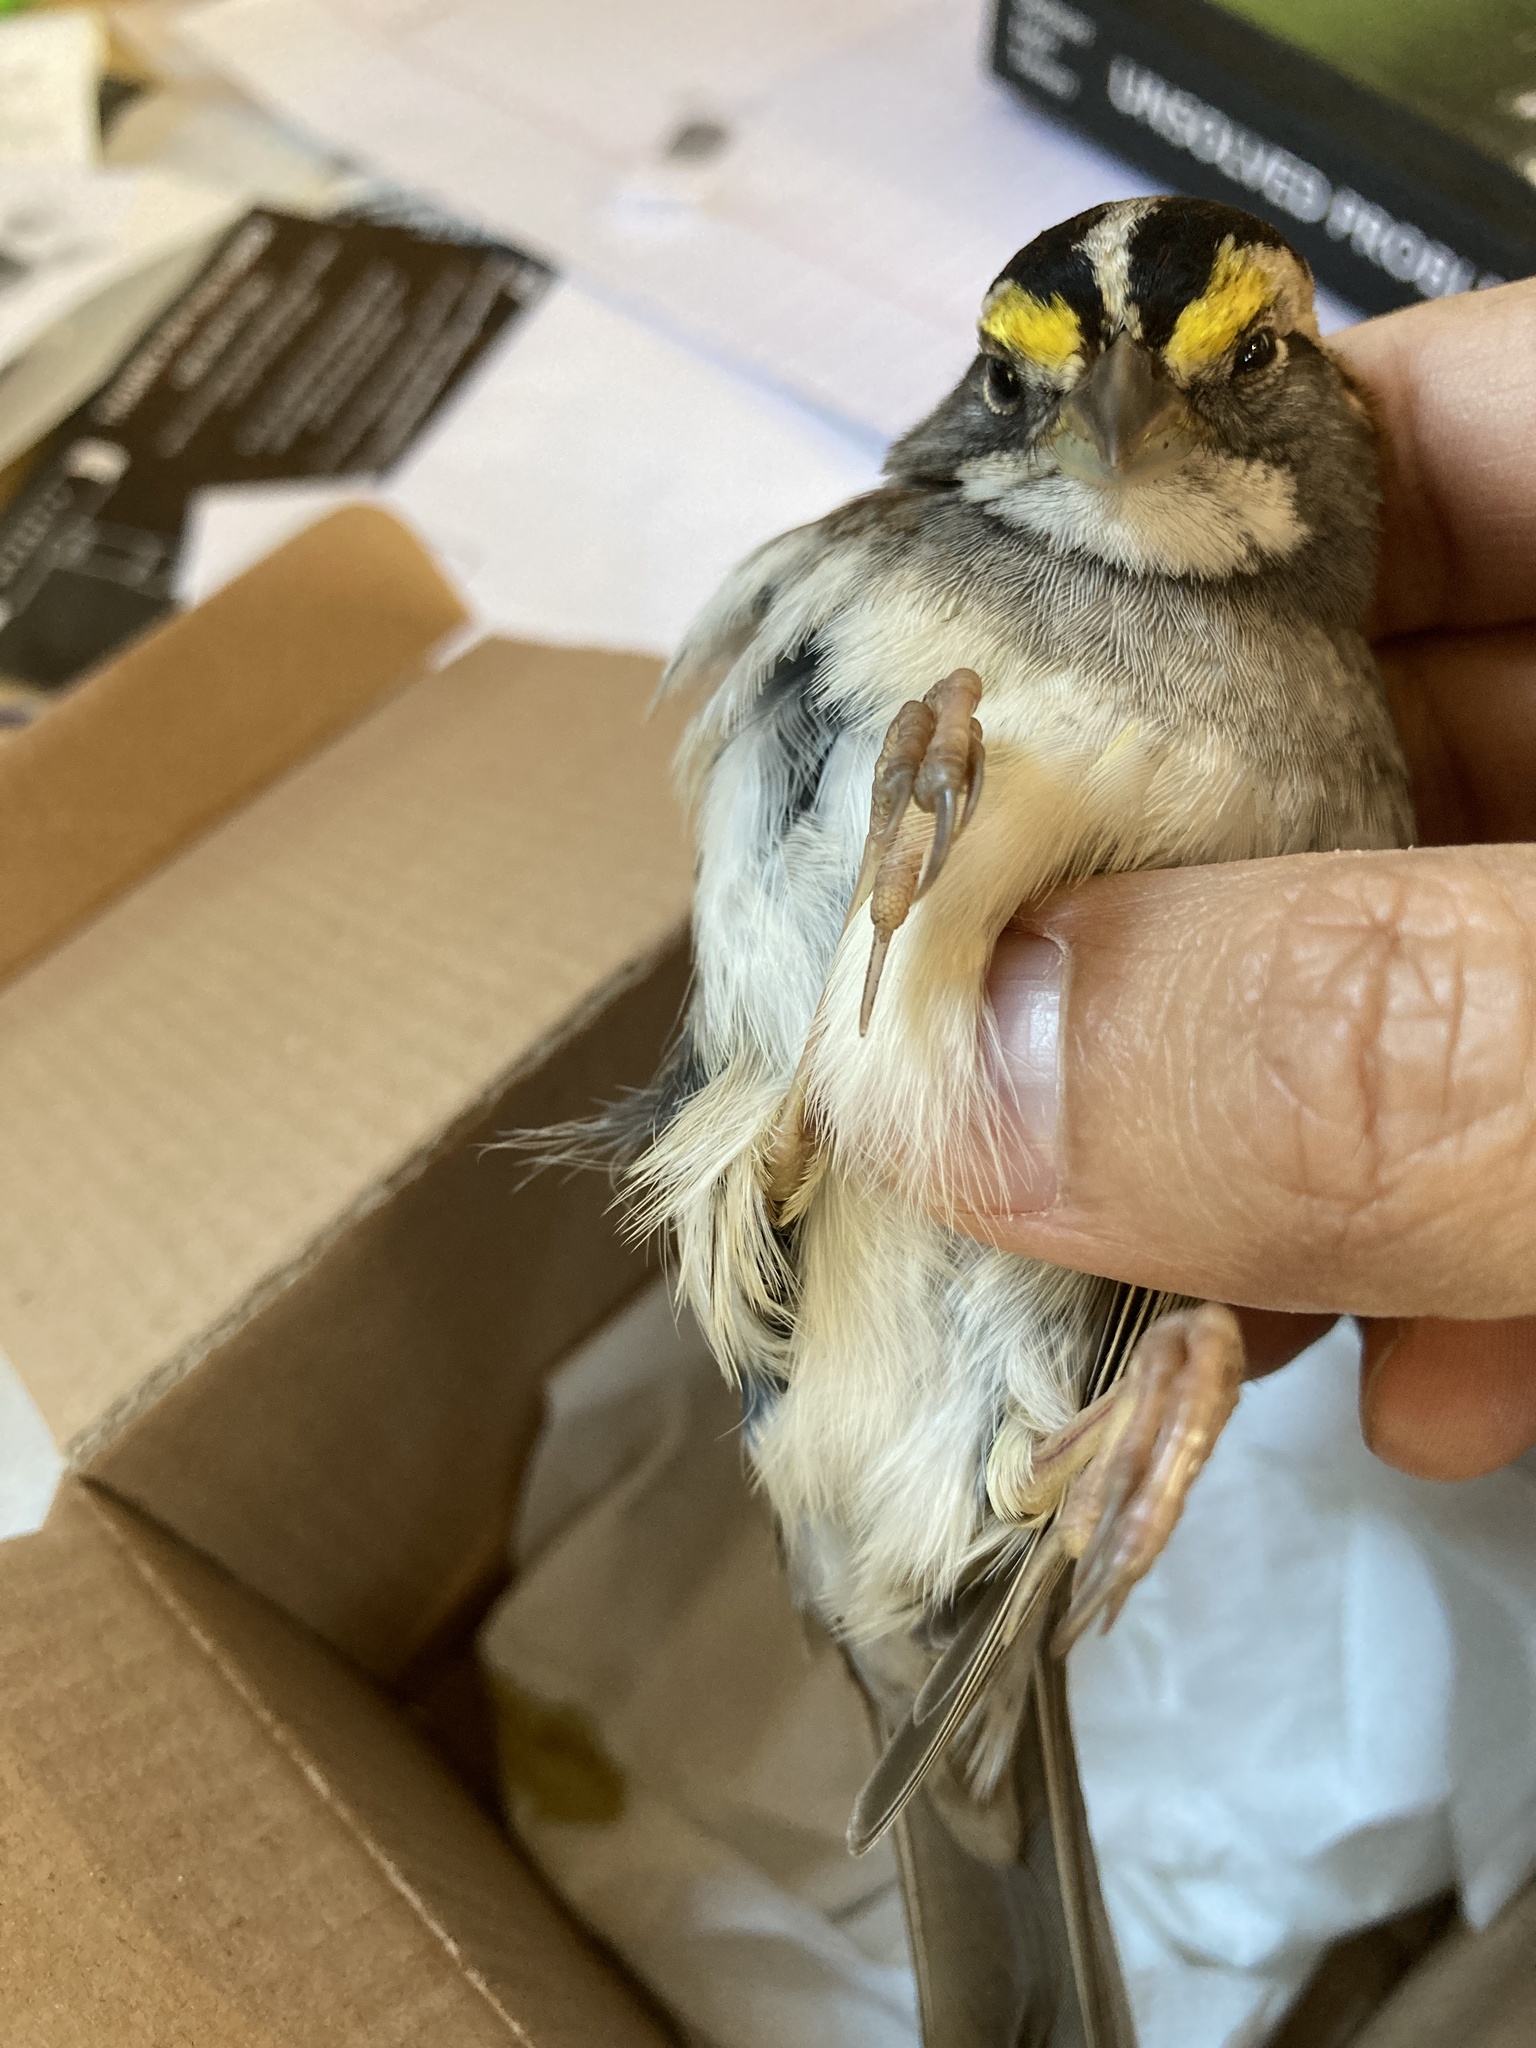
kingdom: Animalia
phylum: Chordata
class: Aves
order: Passeriformes
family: Passerellidae
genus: Zonotrichia
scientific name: Zonotrichia albicollis
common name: White-throated sparrow
